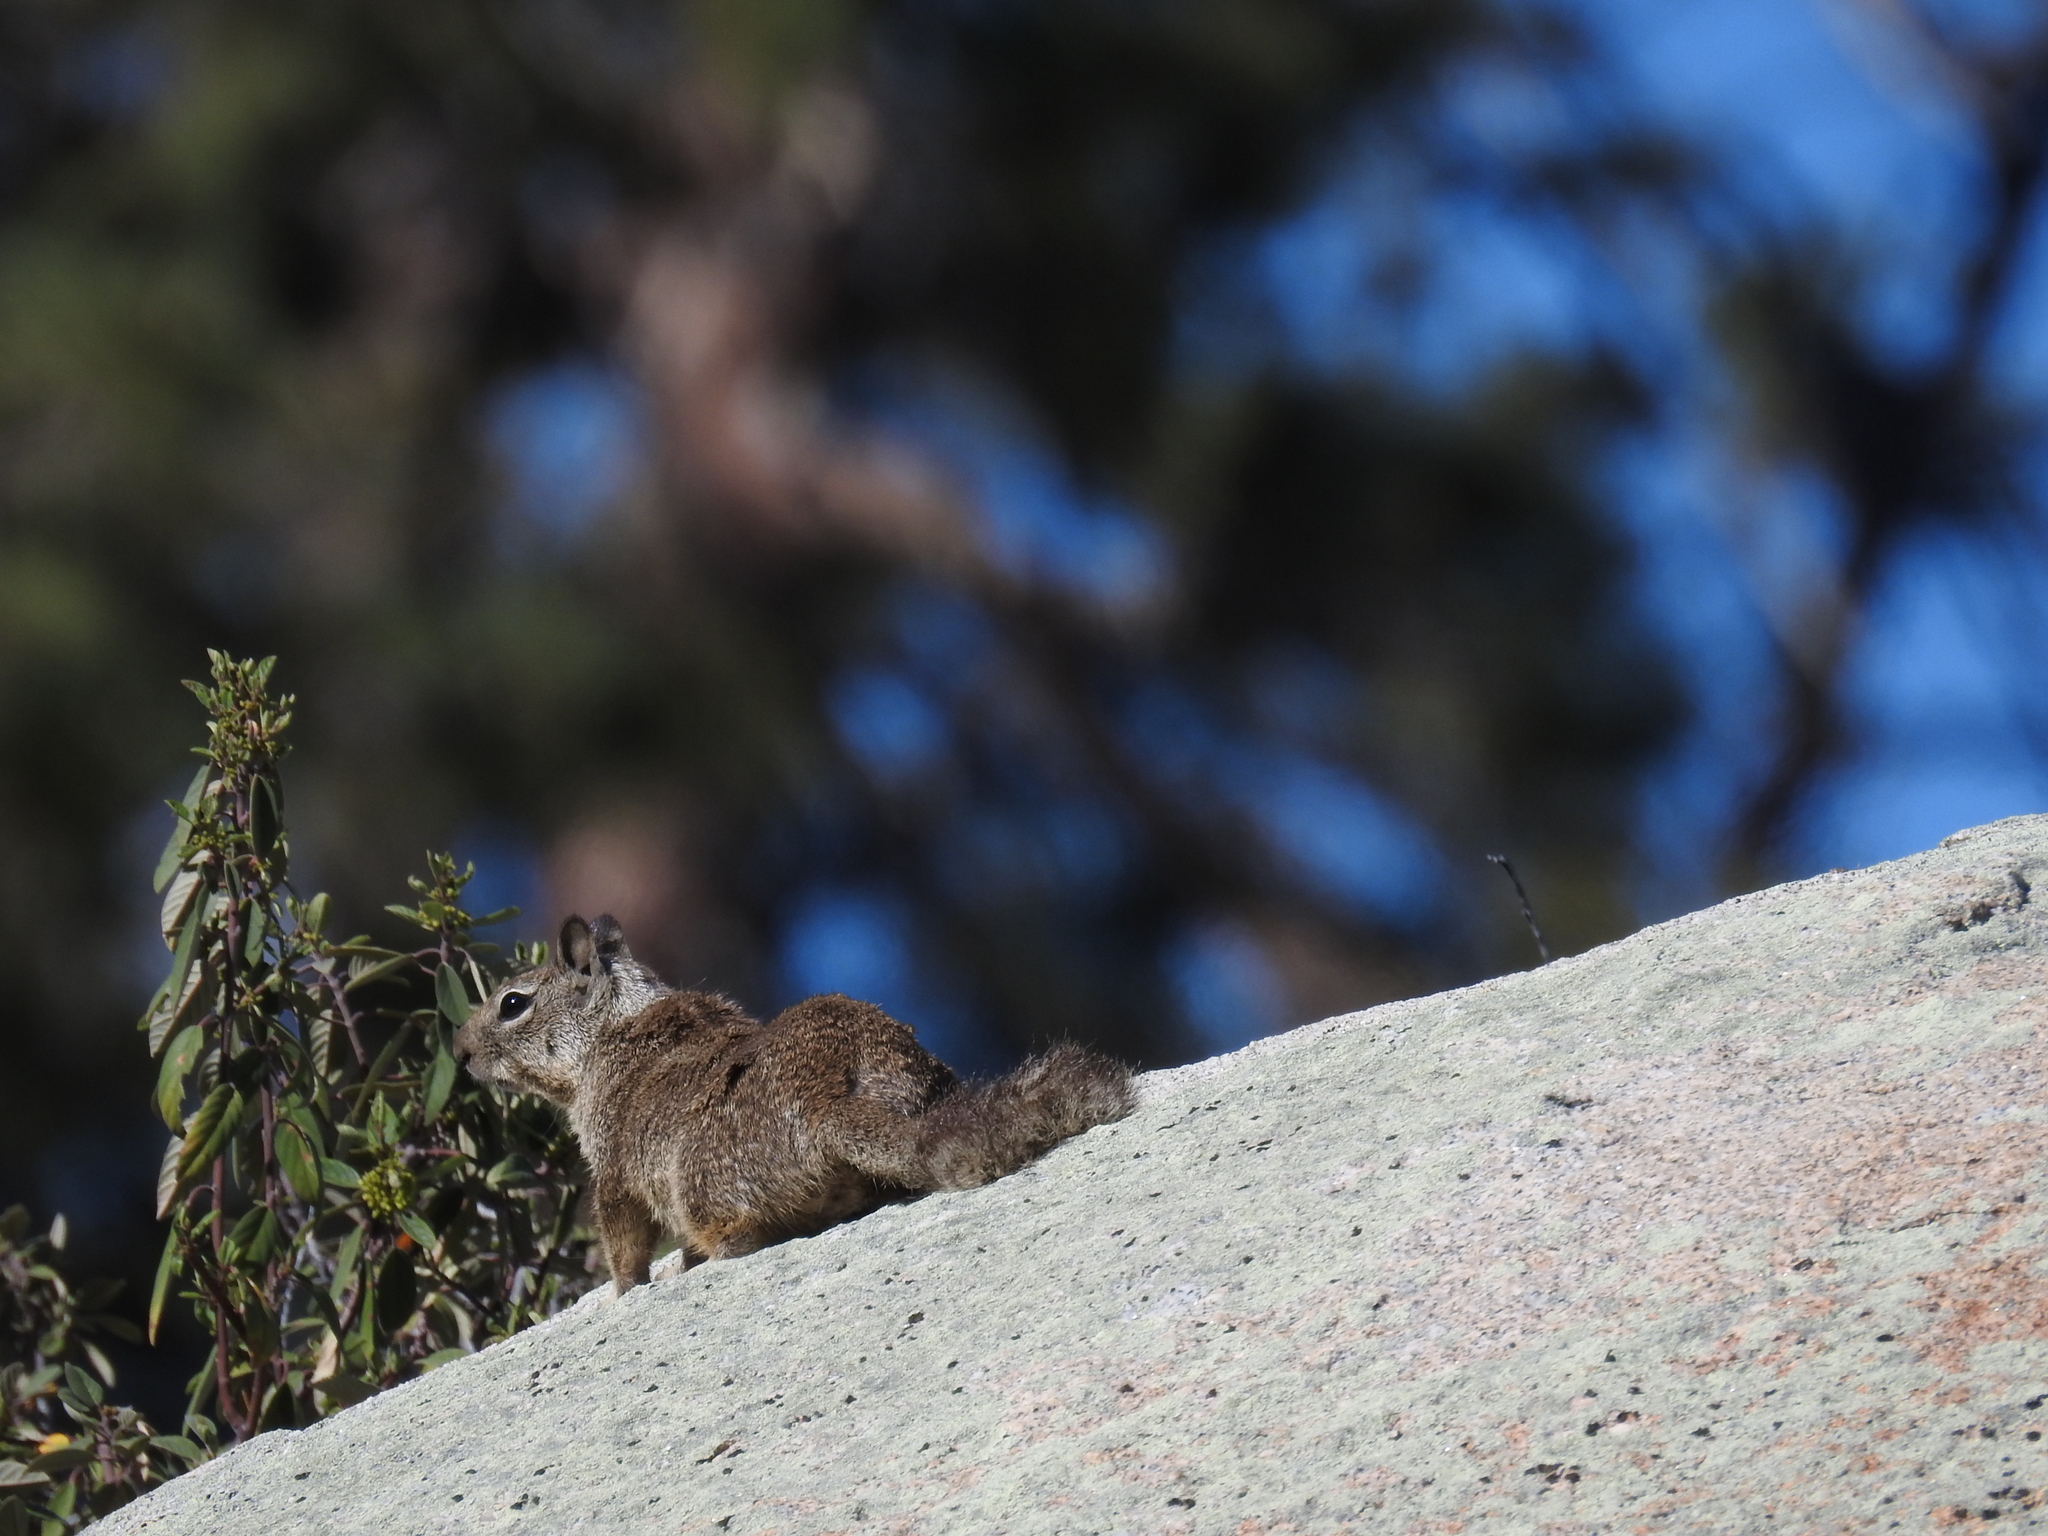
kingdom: Animalia
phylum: Chordata
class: Mammalia
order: Rodentia
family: Sciuridae
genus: Otospermophilus
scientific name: Otospermophilus beecheyi
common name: California ground squirrel
